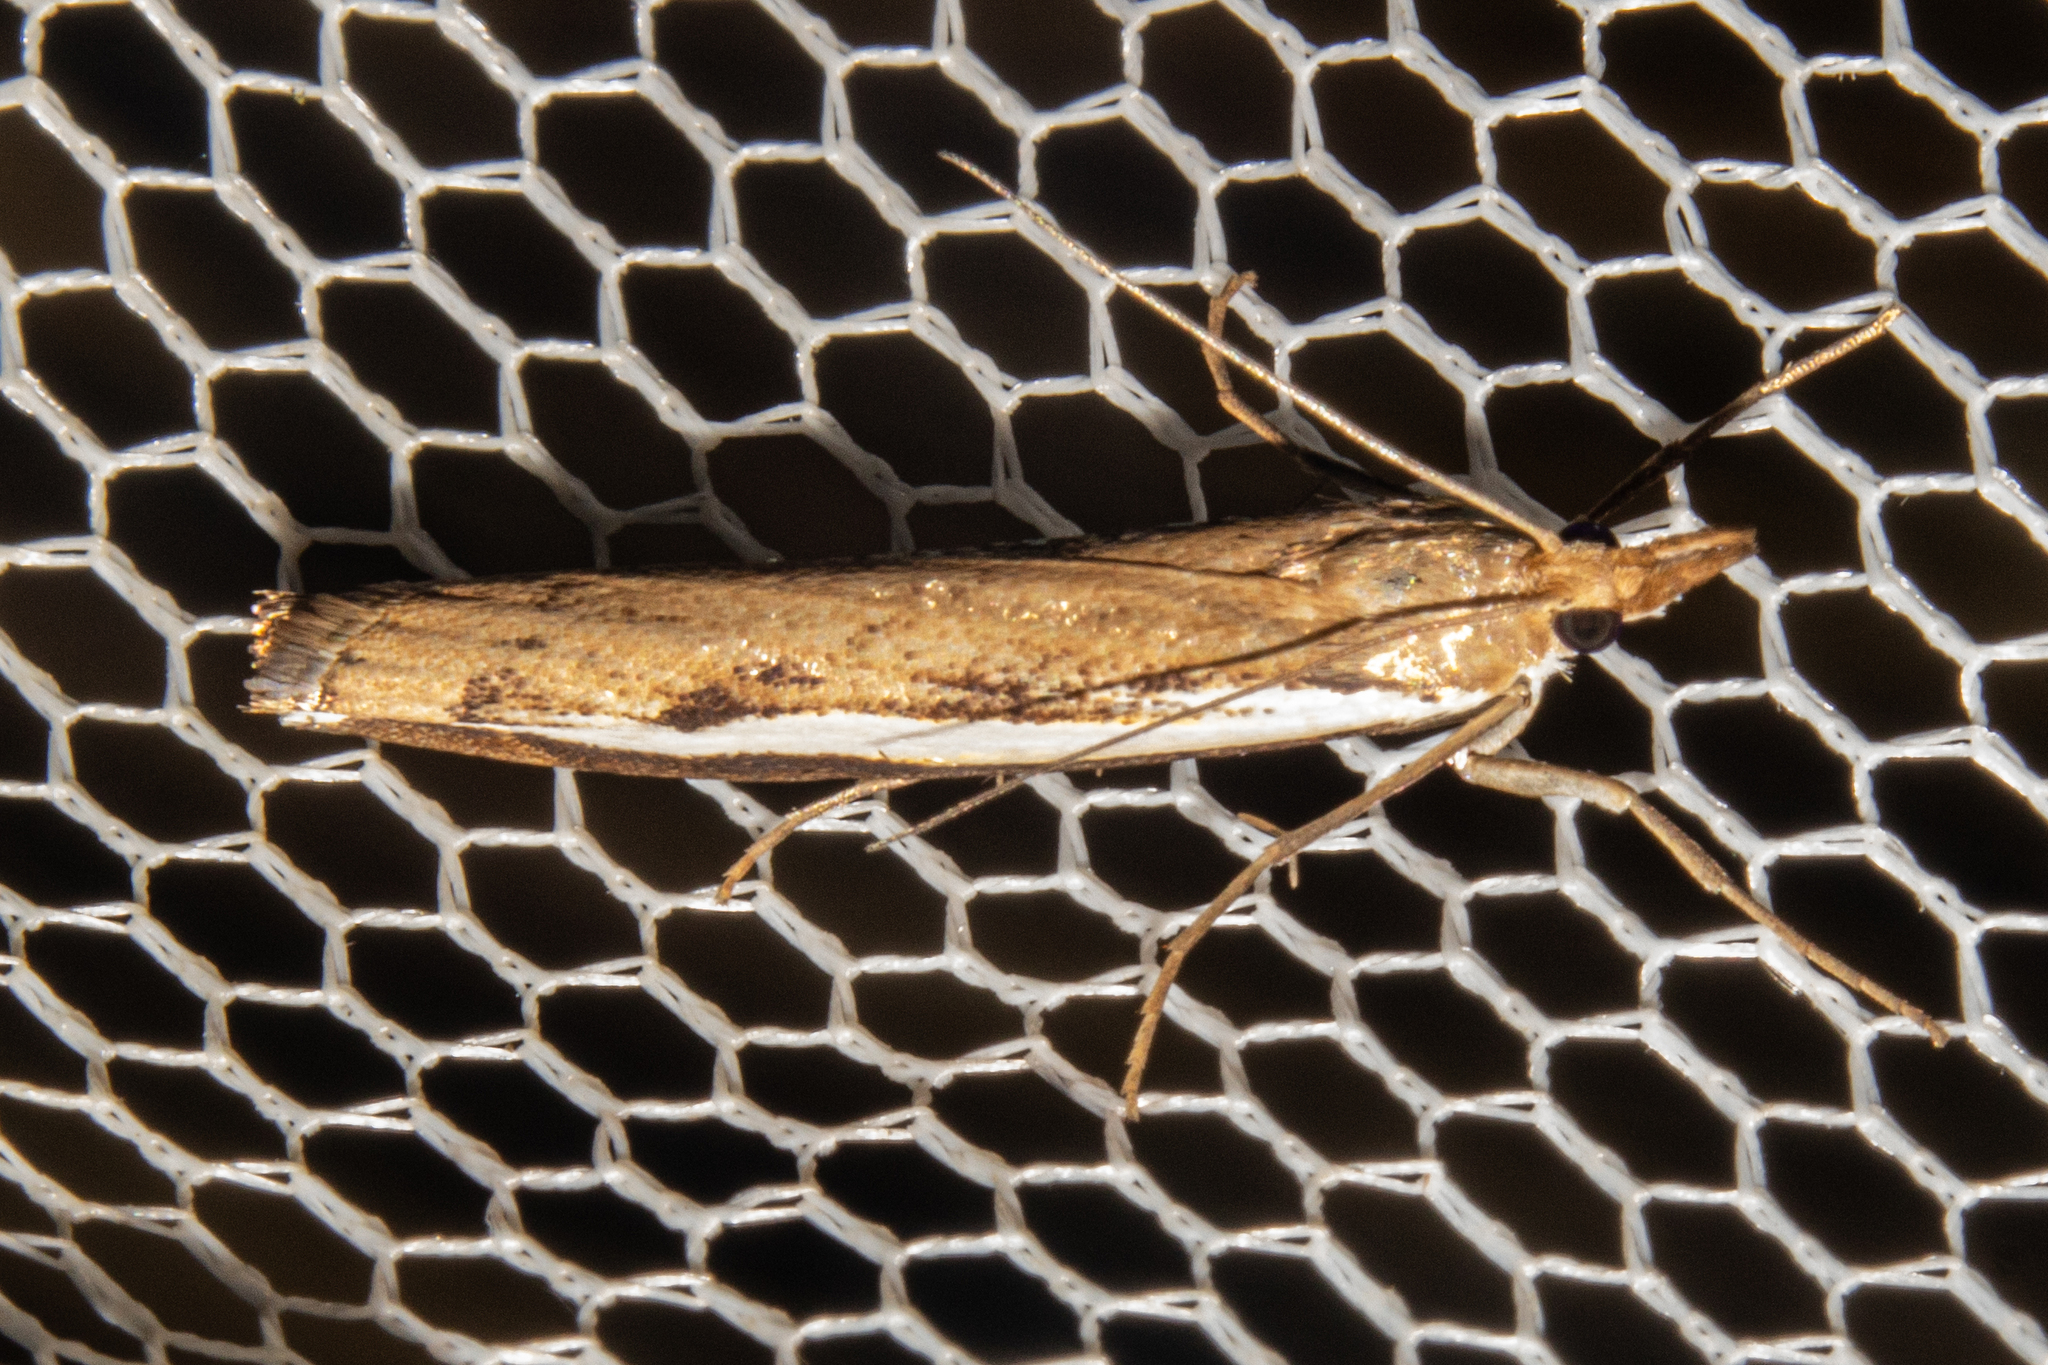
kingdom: Animalia
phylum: Arthropoda
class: Insecta
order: Lepidoptera
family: Crambidae
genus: Orocrambus
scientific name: Orocrambus flexuosellus
